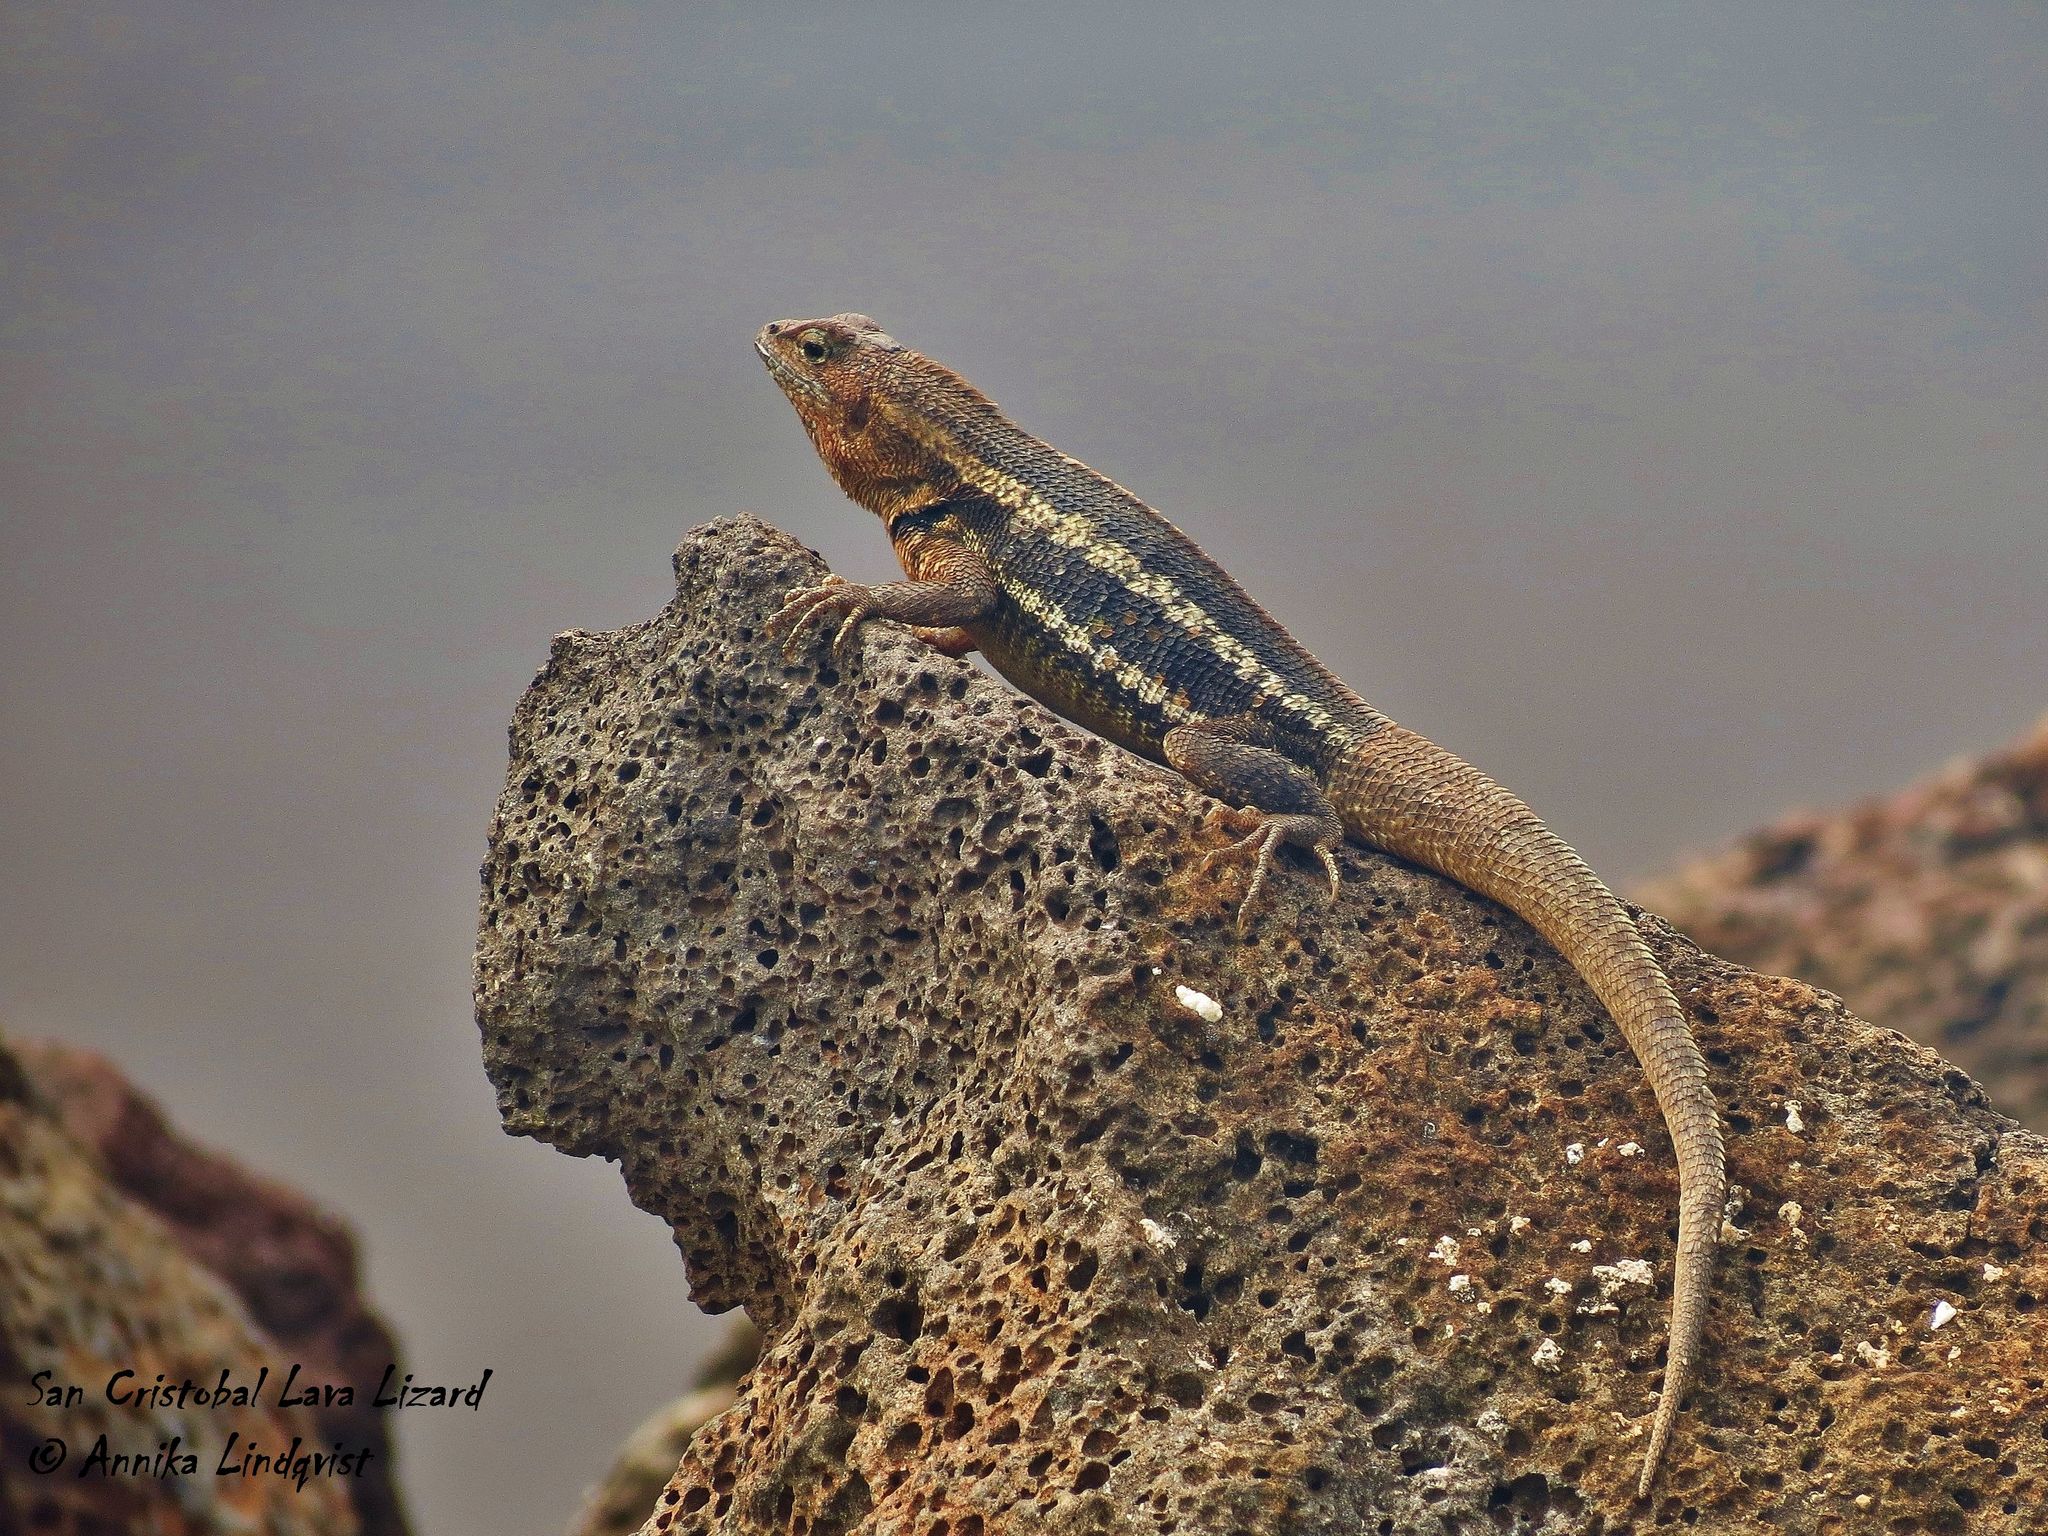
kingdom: Animalia
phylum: Chordata
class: Squamata
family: Tropiduridae
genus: Microlophus
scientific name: Microlophus bivittatus
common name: San cristobal lava lizard
